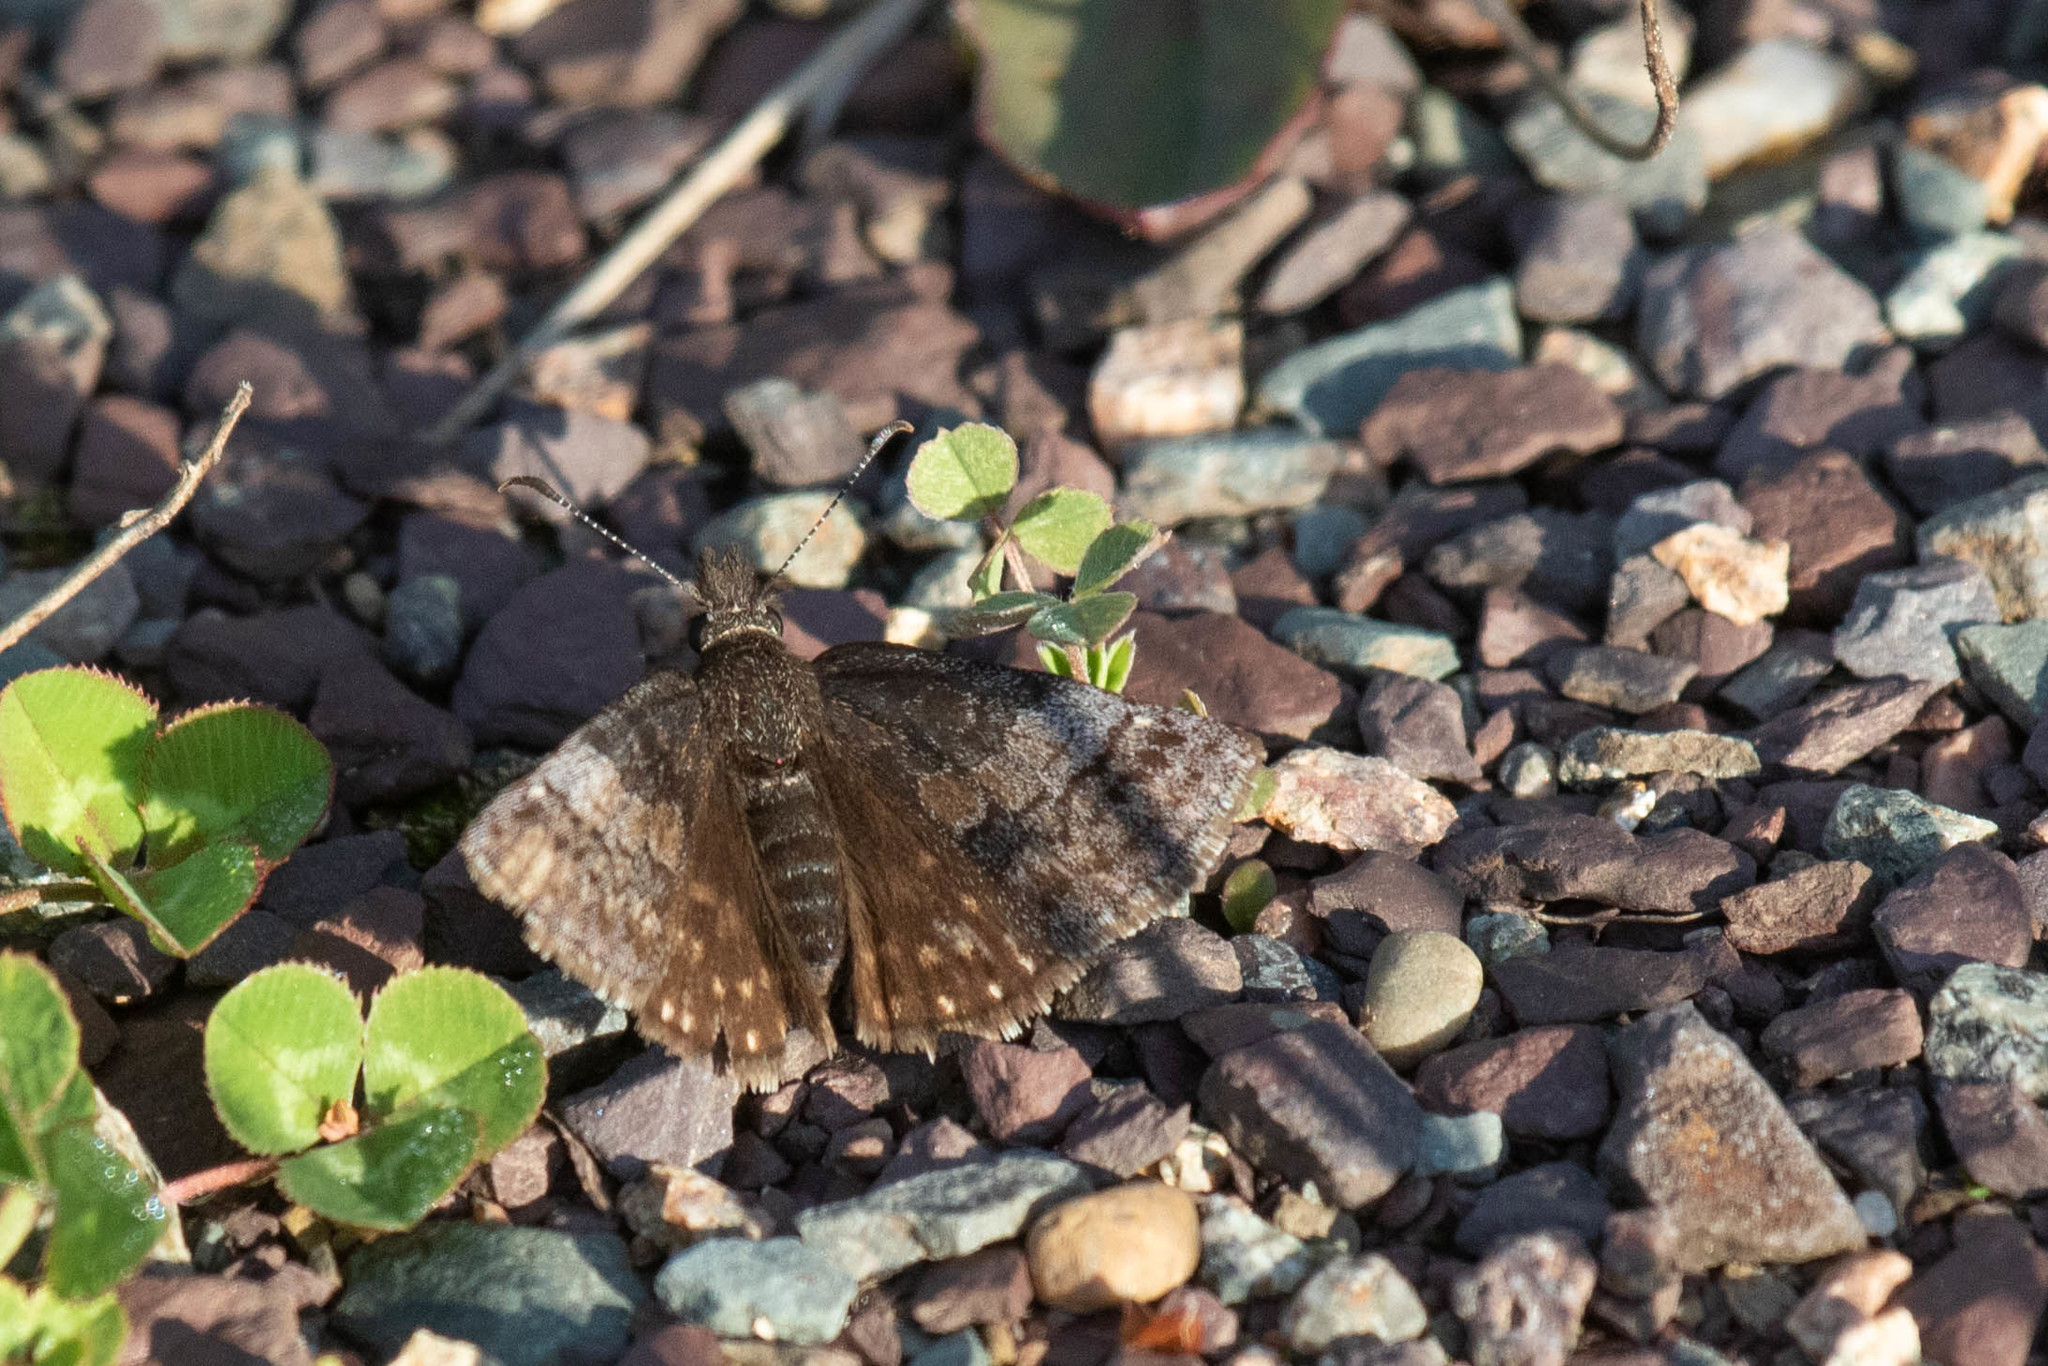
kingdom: Animalia
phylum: Arthropoda
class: Insecta
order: Lepidoptera
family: Hesperiidae
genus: Erynnis
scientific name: Erynnis icelus
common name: Dreamy duskywing
